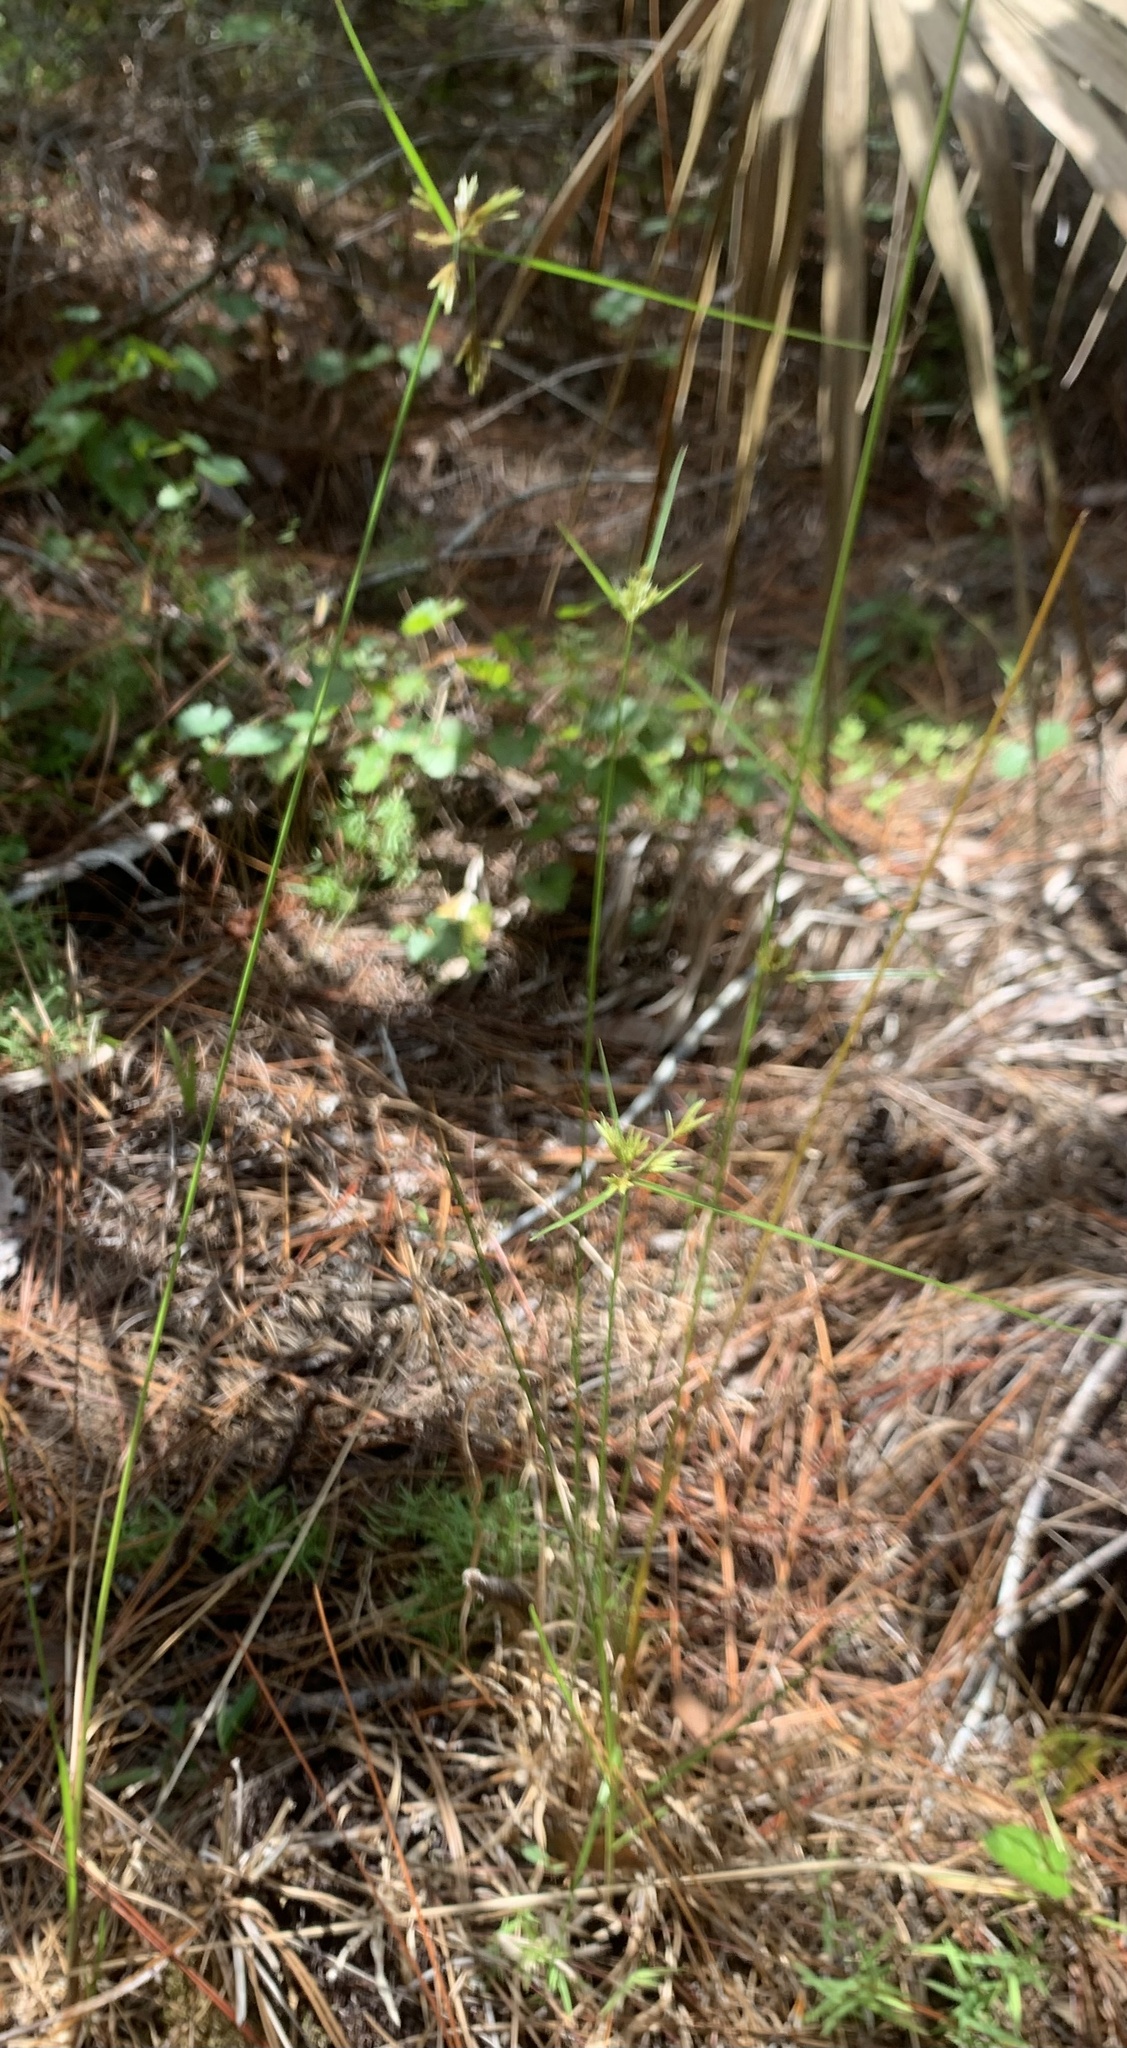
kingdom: Plantae
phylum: Tracheophyta
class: Liliopsida
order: Poales
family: Cyperaceae
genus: Cyperus
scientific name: Cyperus polystachyos
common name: Bunchy flat sedge
